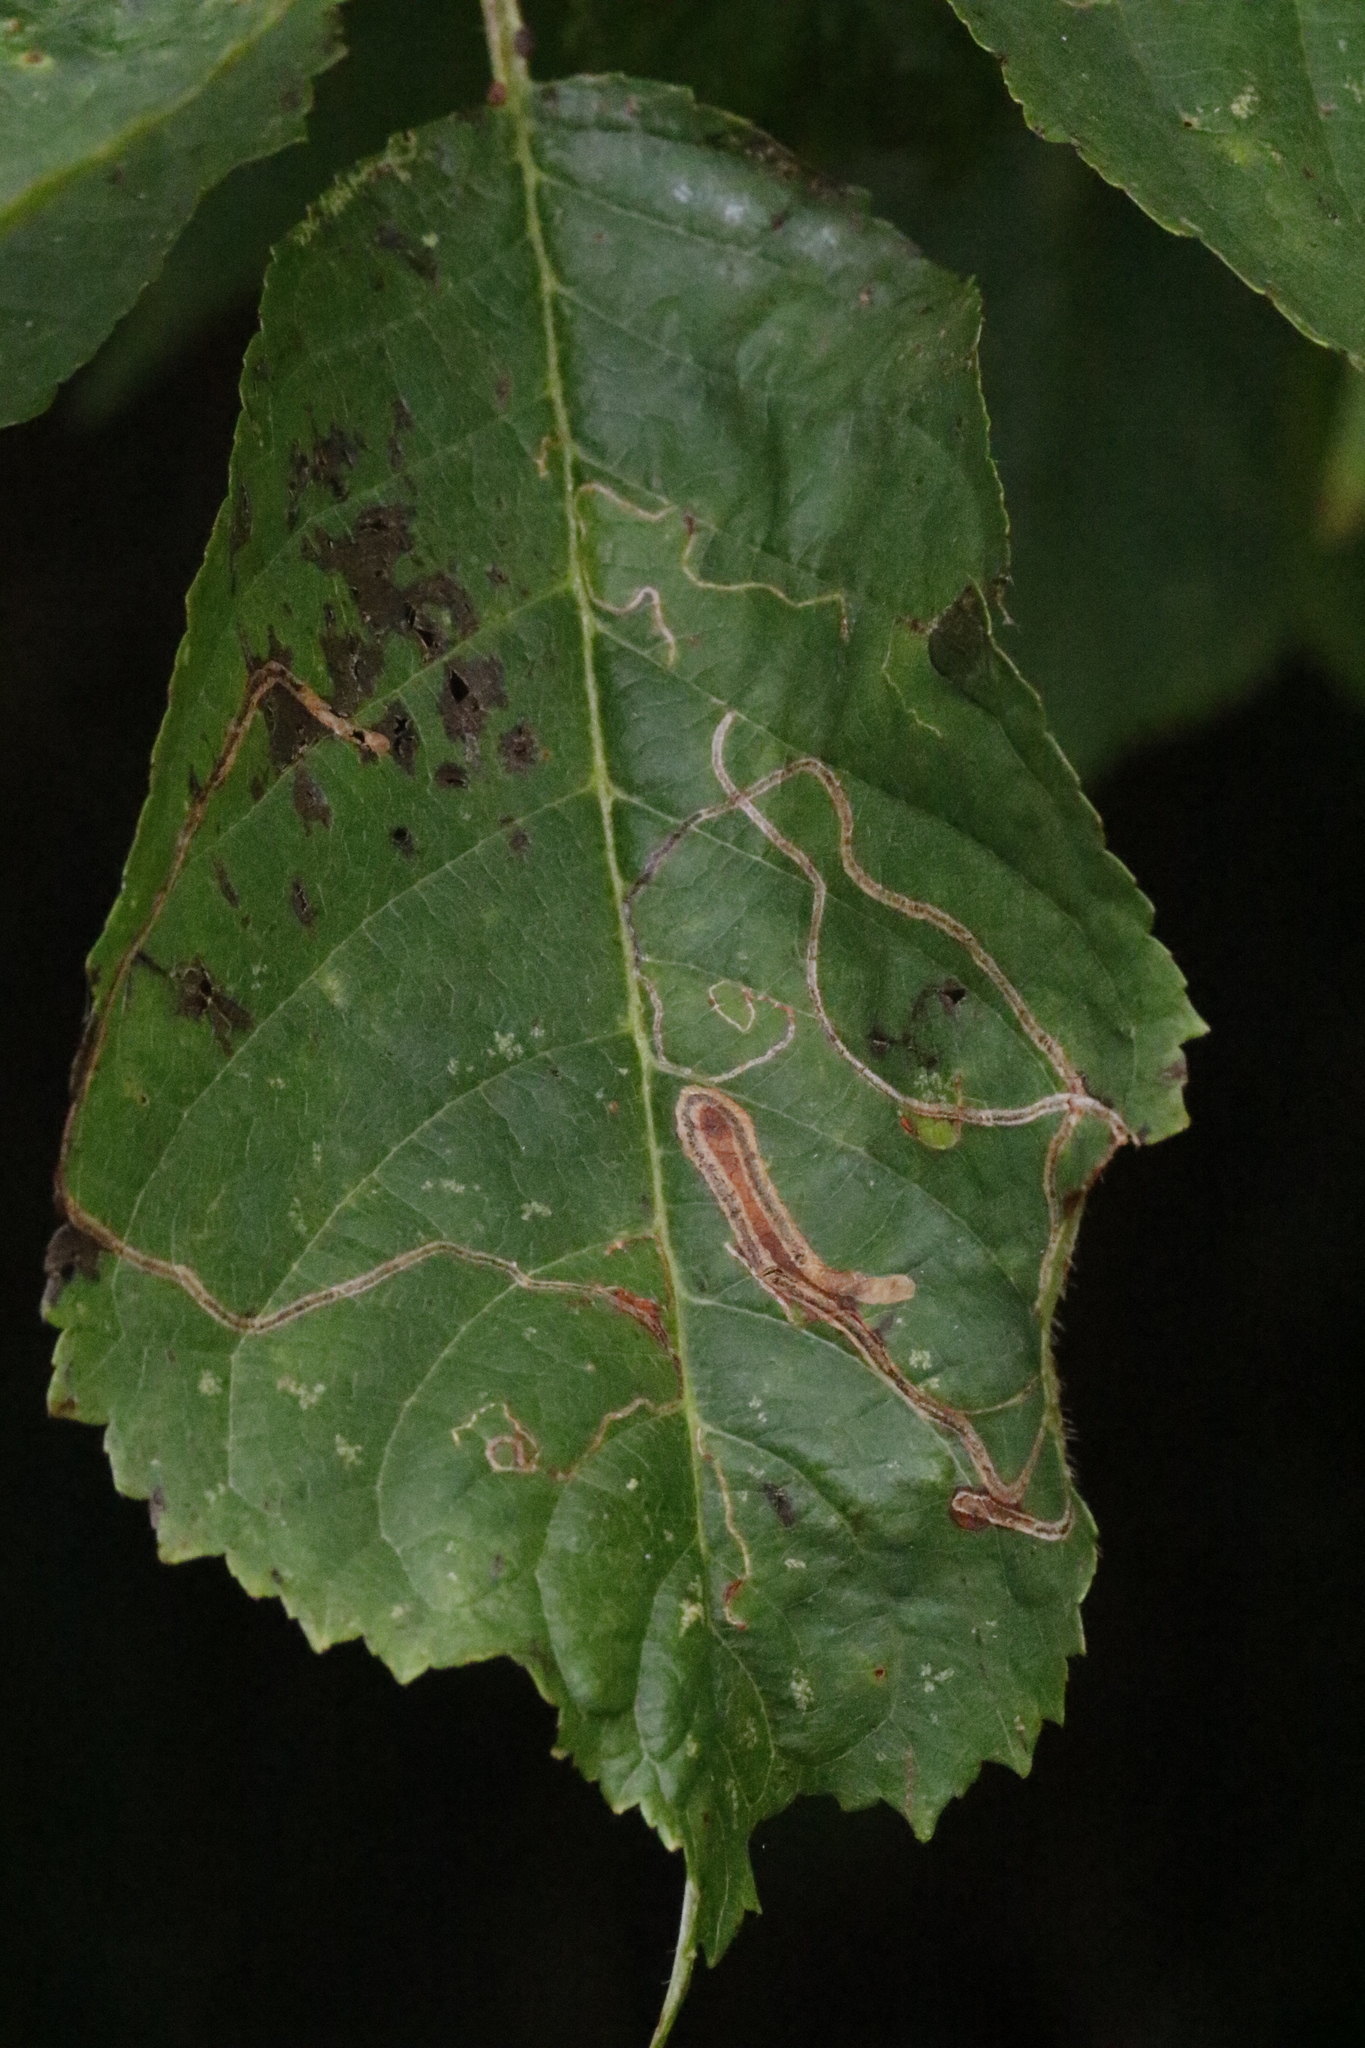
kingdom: Animalia
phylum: Arthropoda
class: Insecta
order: Lepidoptera
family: Lyonetiidae
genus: Lyonetia
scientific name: Lyonetia clerkella
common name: Apple leaf miner
